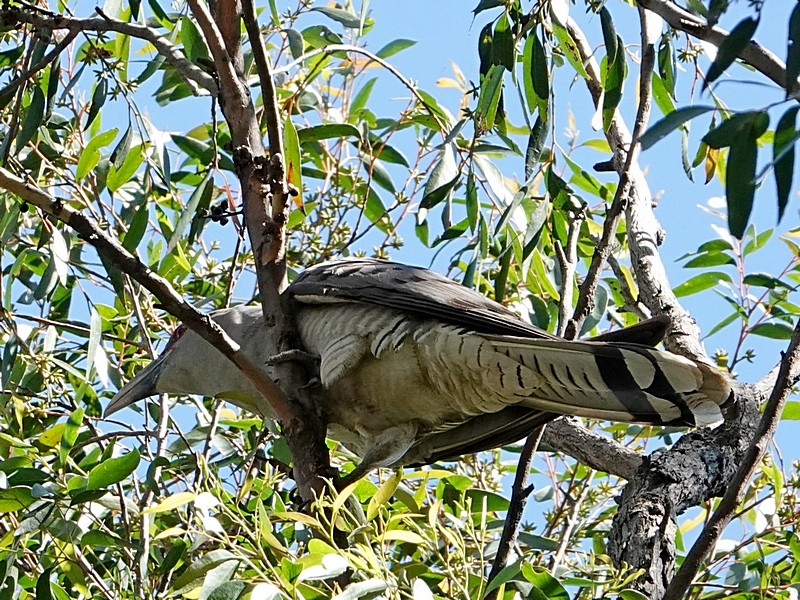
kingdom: Animalia
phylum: Chordata
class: Aves
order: Cuculiformes
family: Cuculidae
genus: Scythrops
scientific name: Scythrops novaehollandiae
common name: Channel-billed cuckoo
